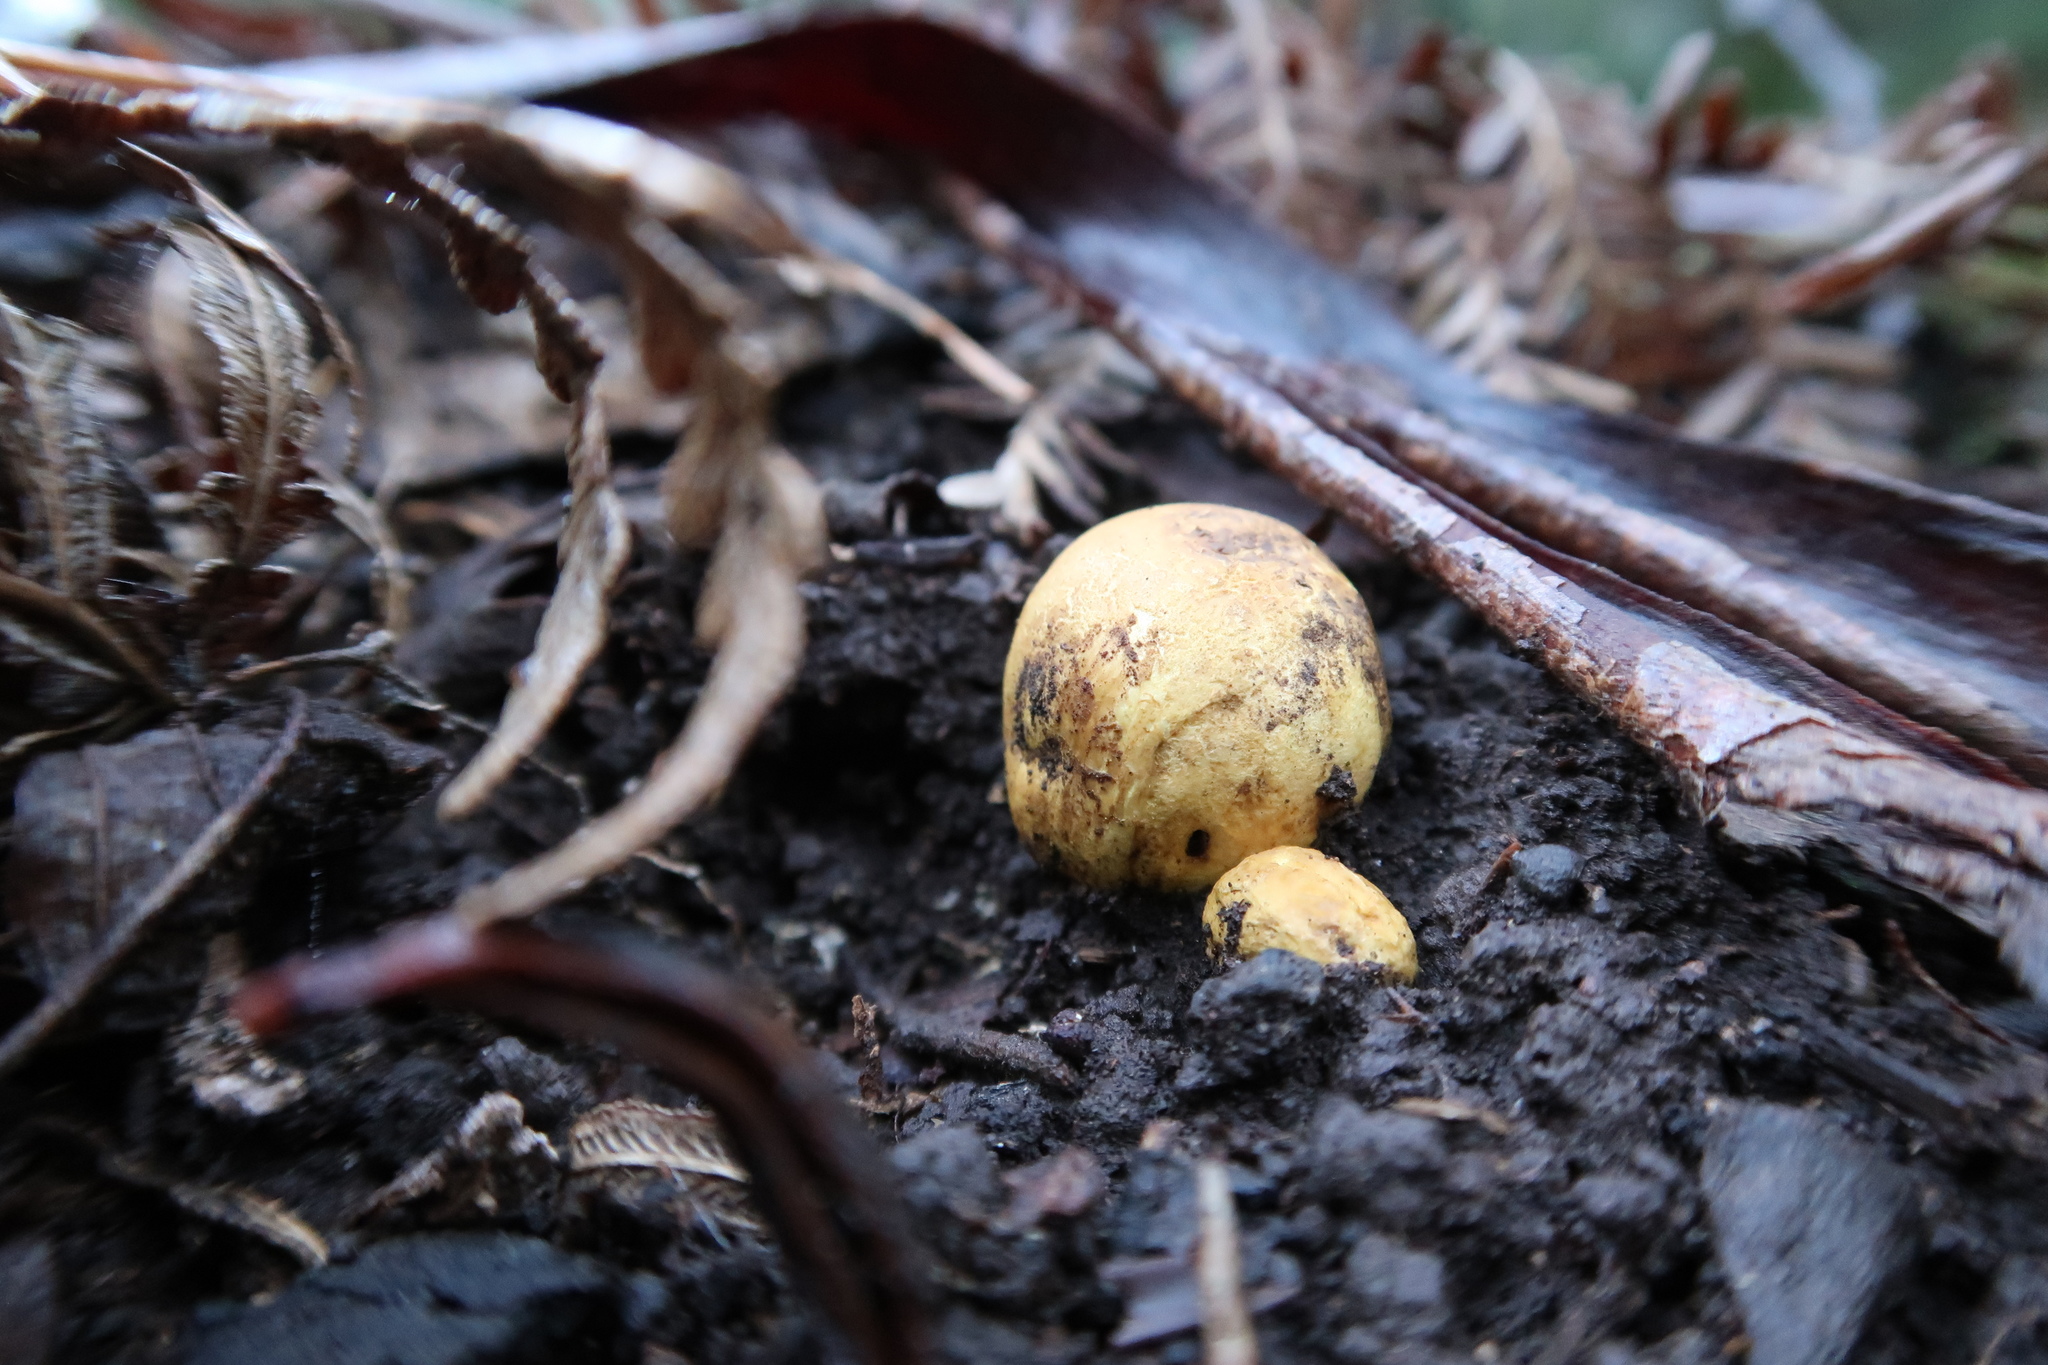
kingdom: Fungi
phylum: Basidiomycota
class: Agaricomycetes
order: Boletales
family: Sclerodermataceae
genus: Scleroderma
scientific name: Scleroderma cepa
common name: Onion earthball
